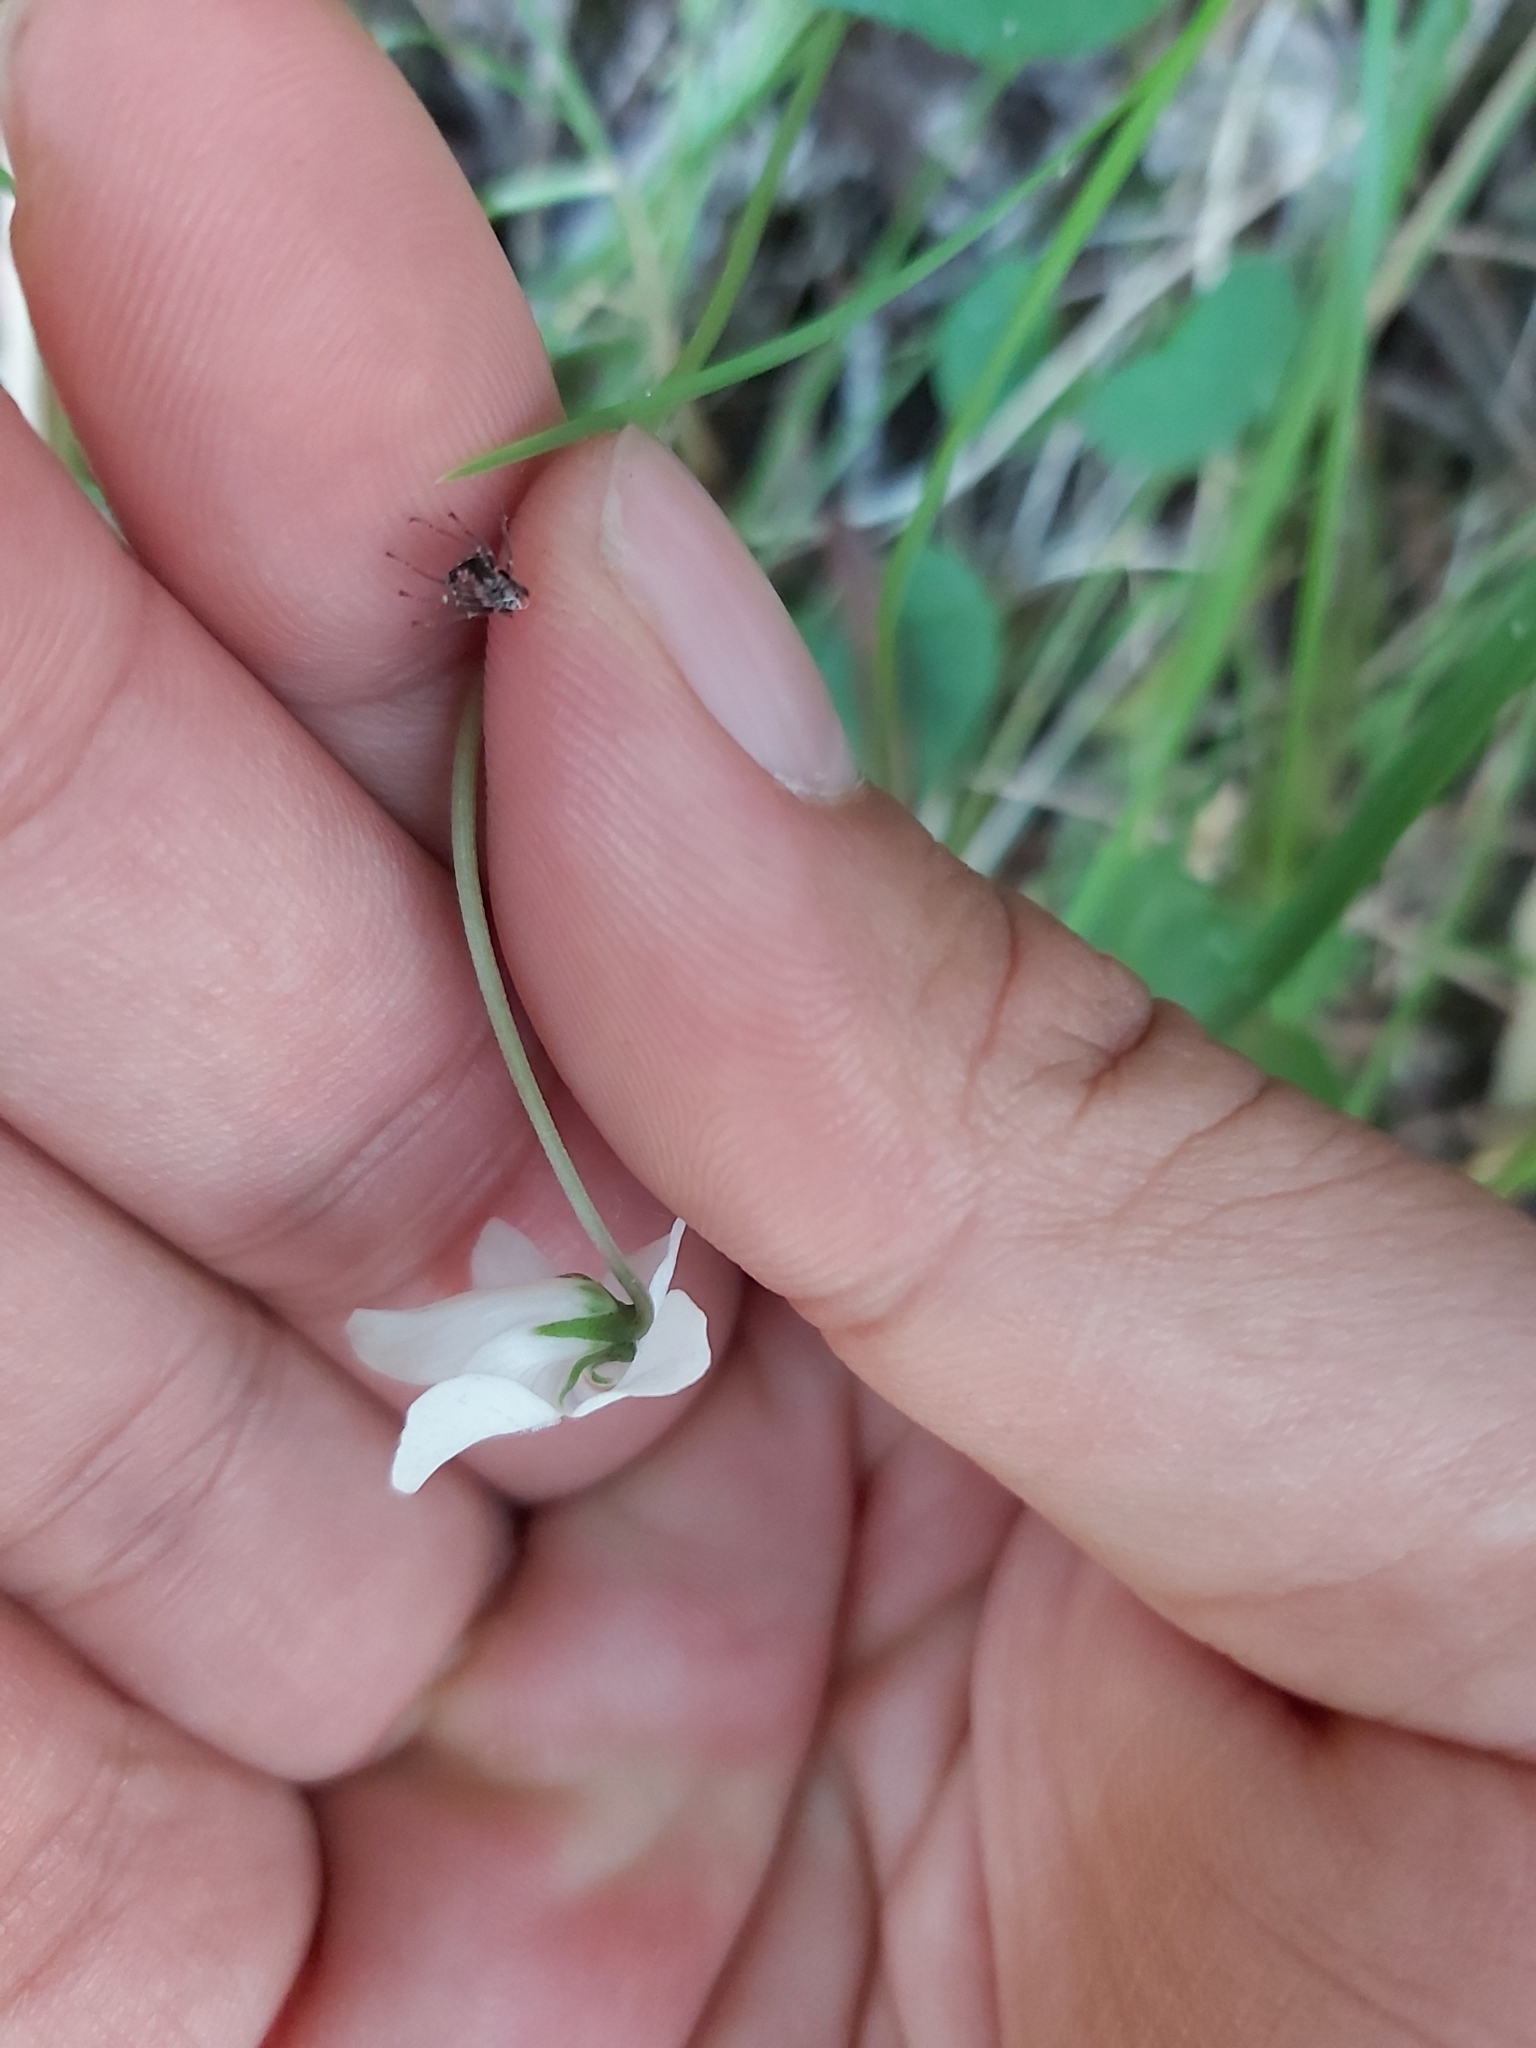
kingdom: Plantae
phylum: Tracheophyta
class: Magnoliopsida
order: Malpighiales
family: Violaceae
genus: Viola
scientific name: Viola hederacea
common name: Australian violet
